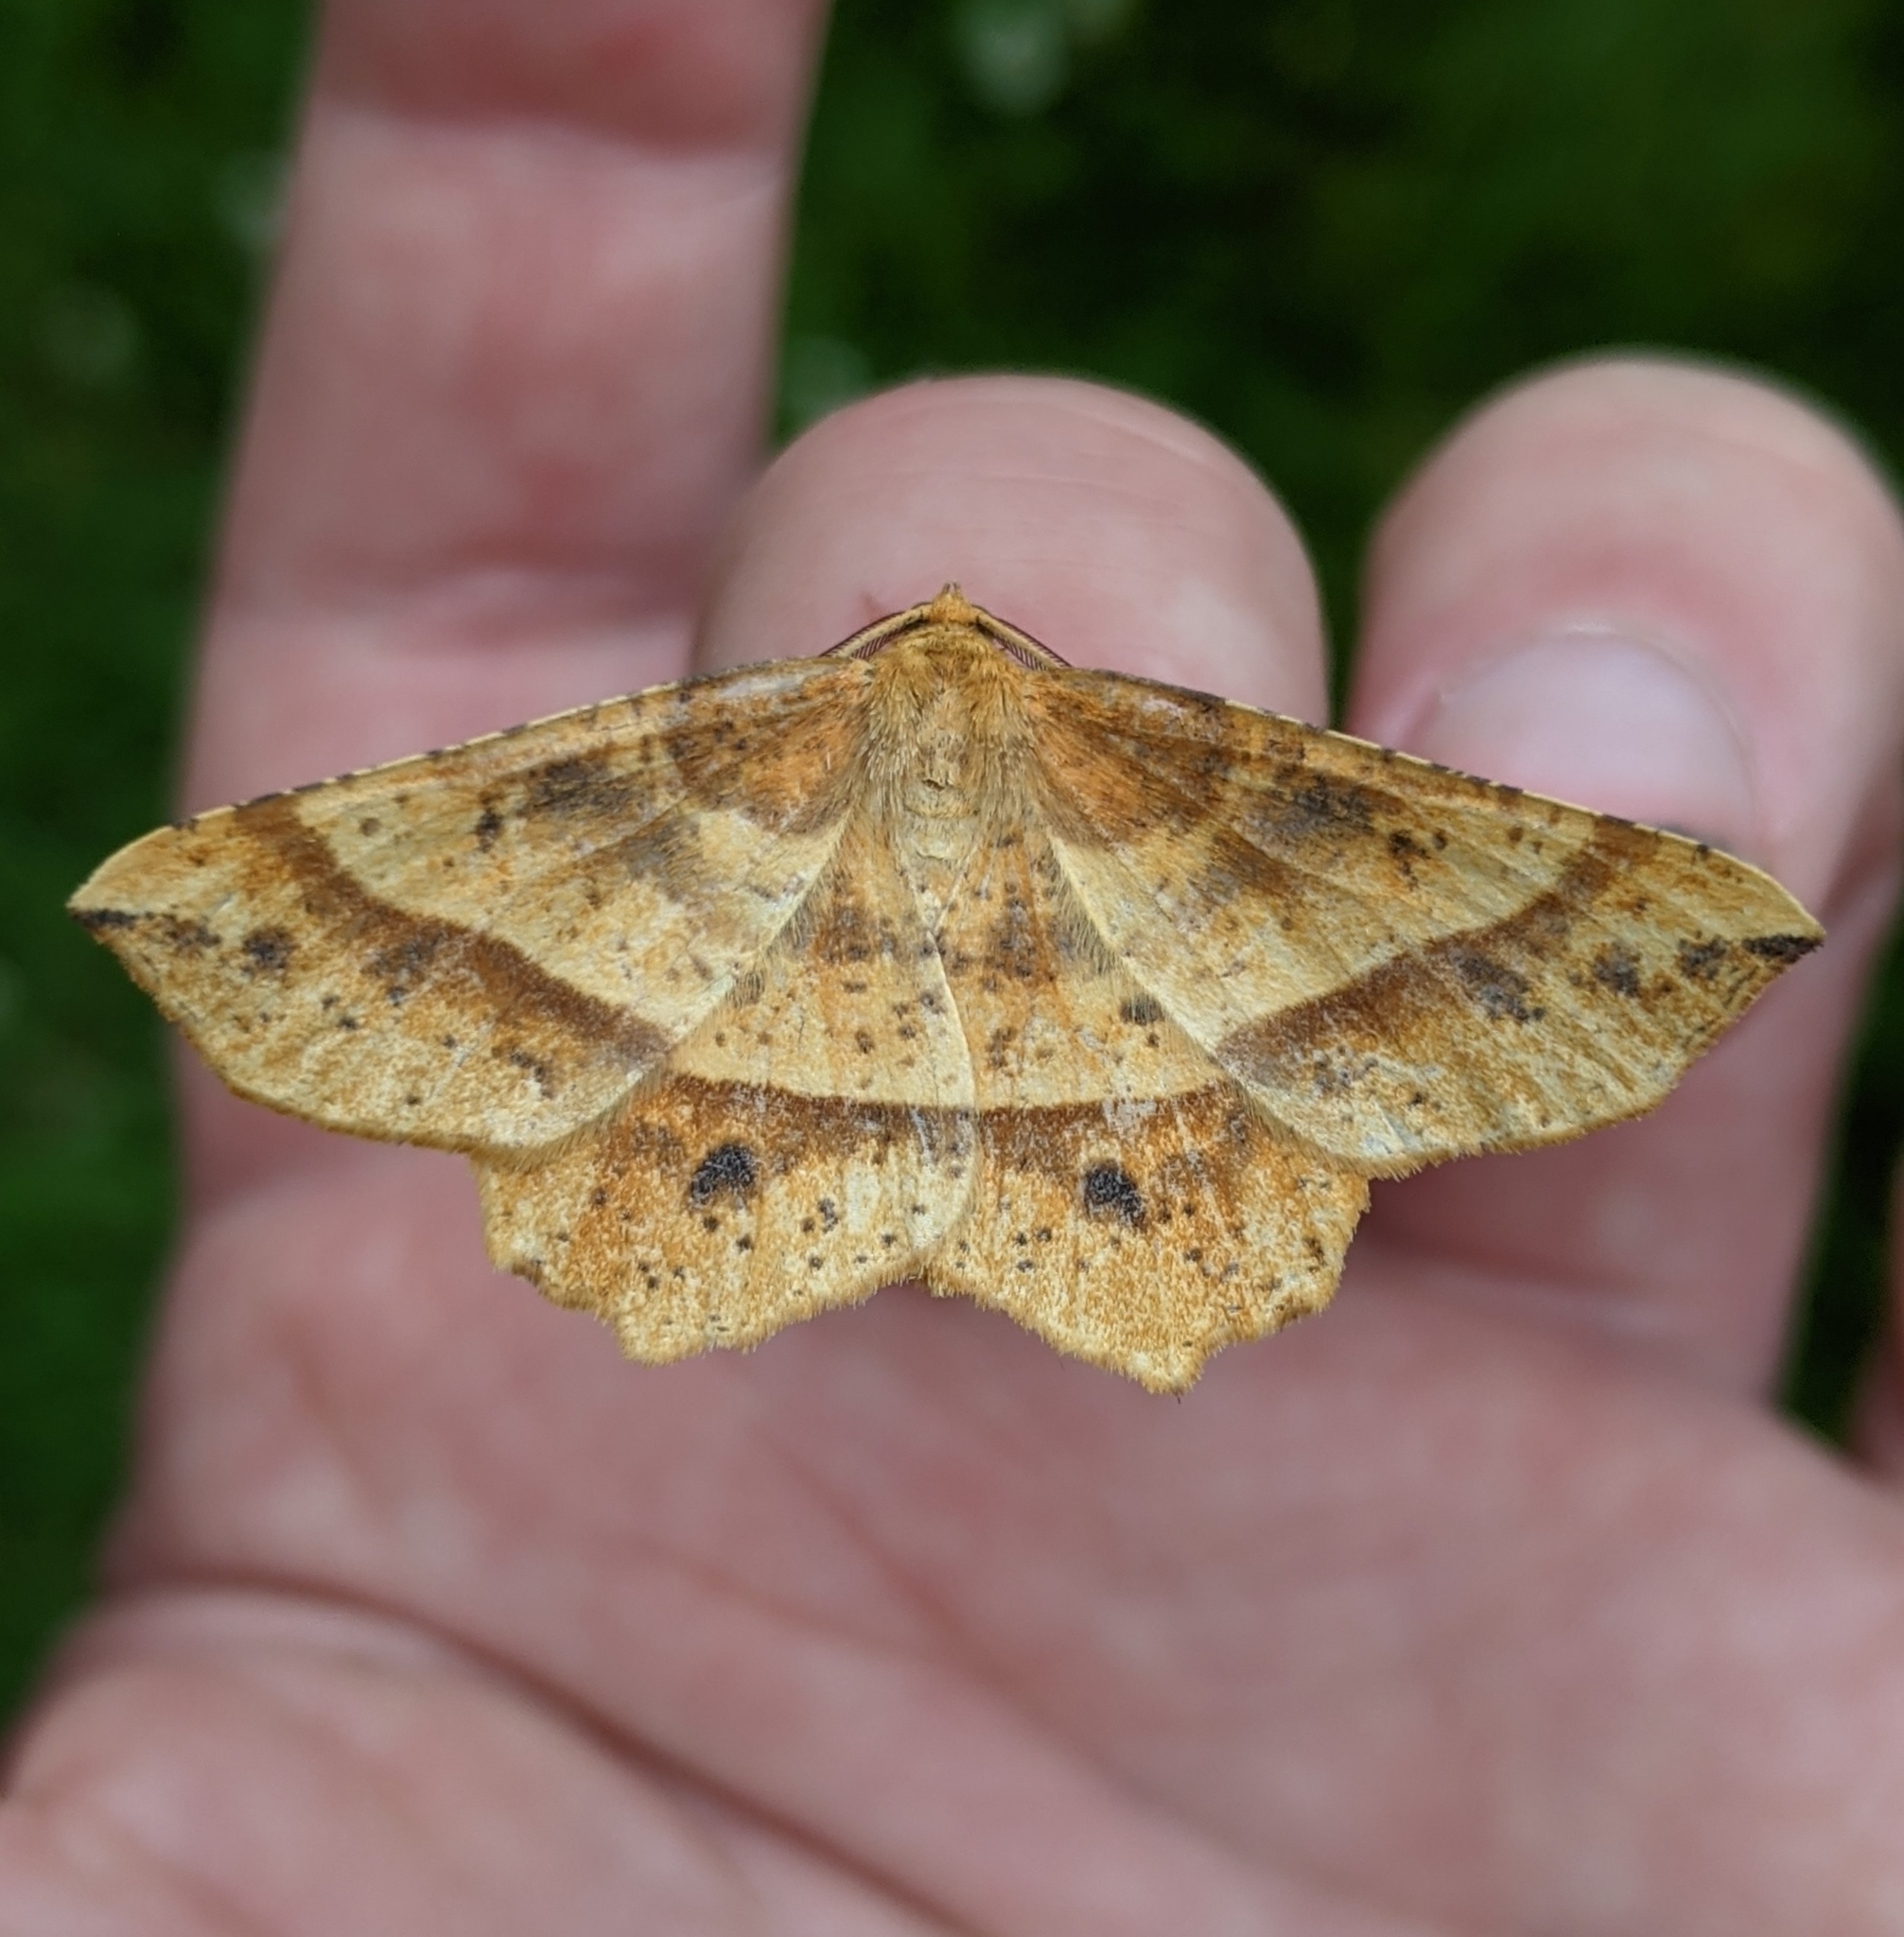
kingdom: Animalia
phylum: Arthropoda
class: Insecta
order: Lepidoptera
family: Geometridae
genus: Euchlaena
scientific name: Euchlaena tigrinaria
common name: Mottled euchlaena moth
